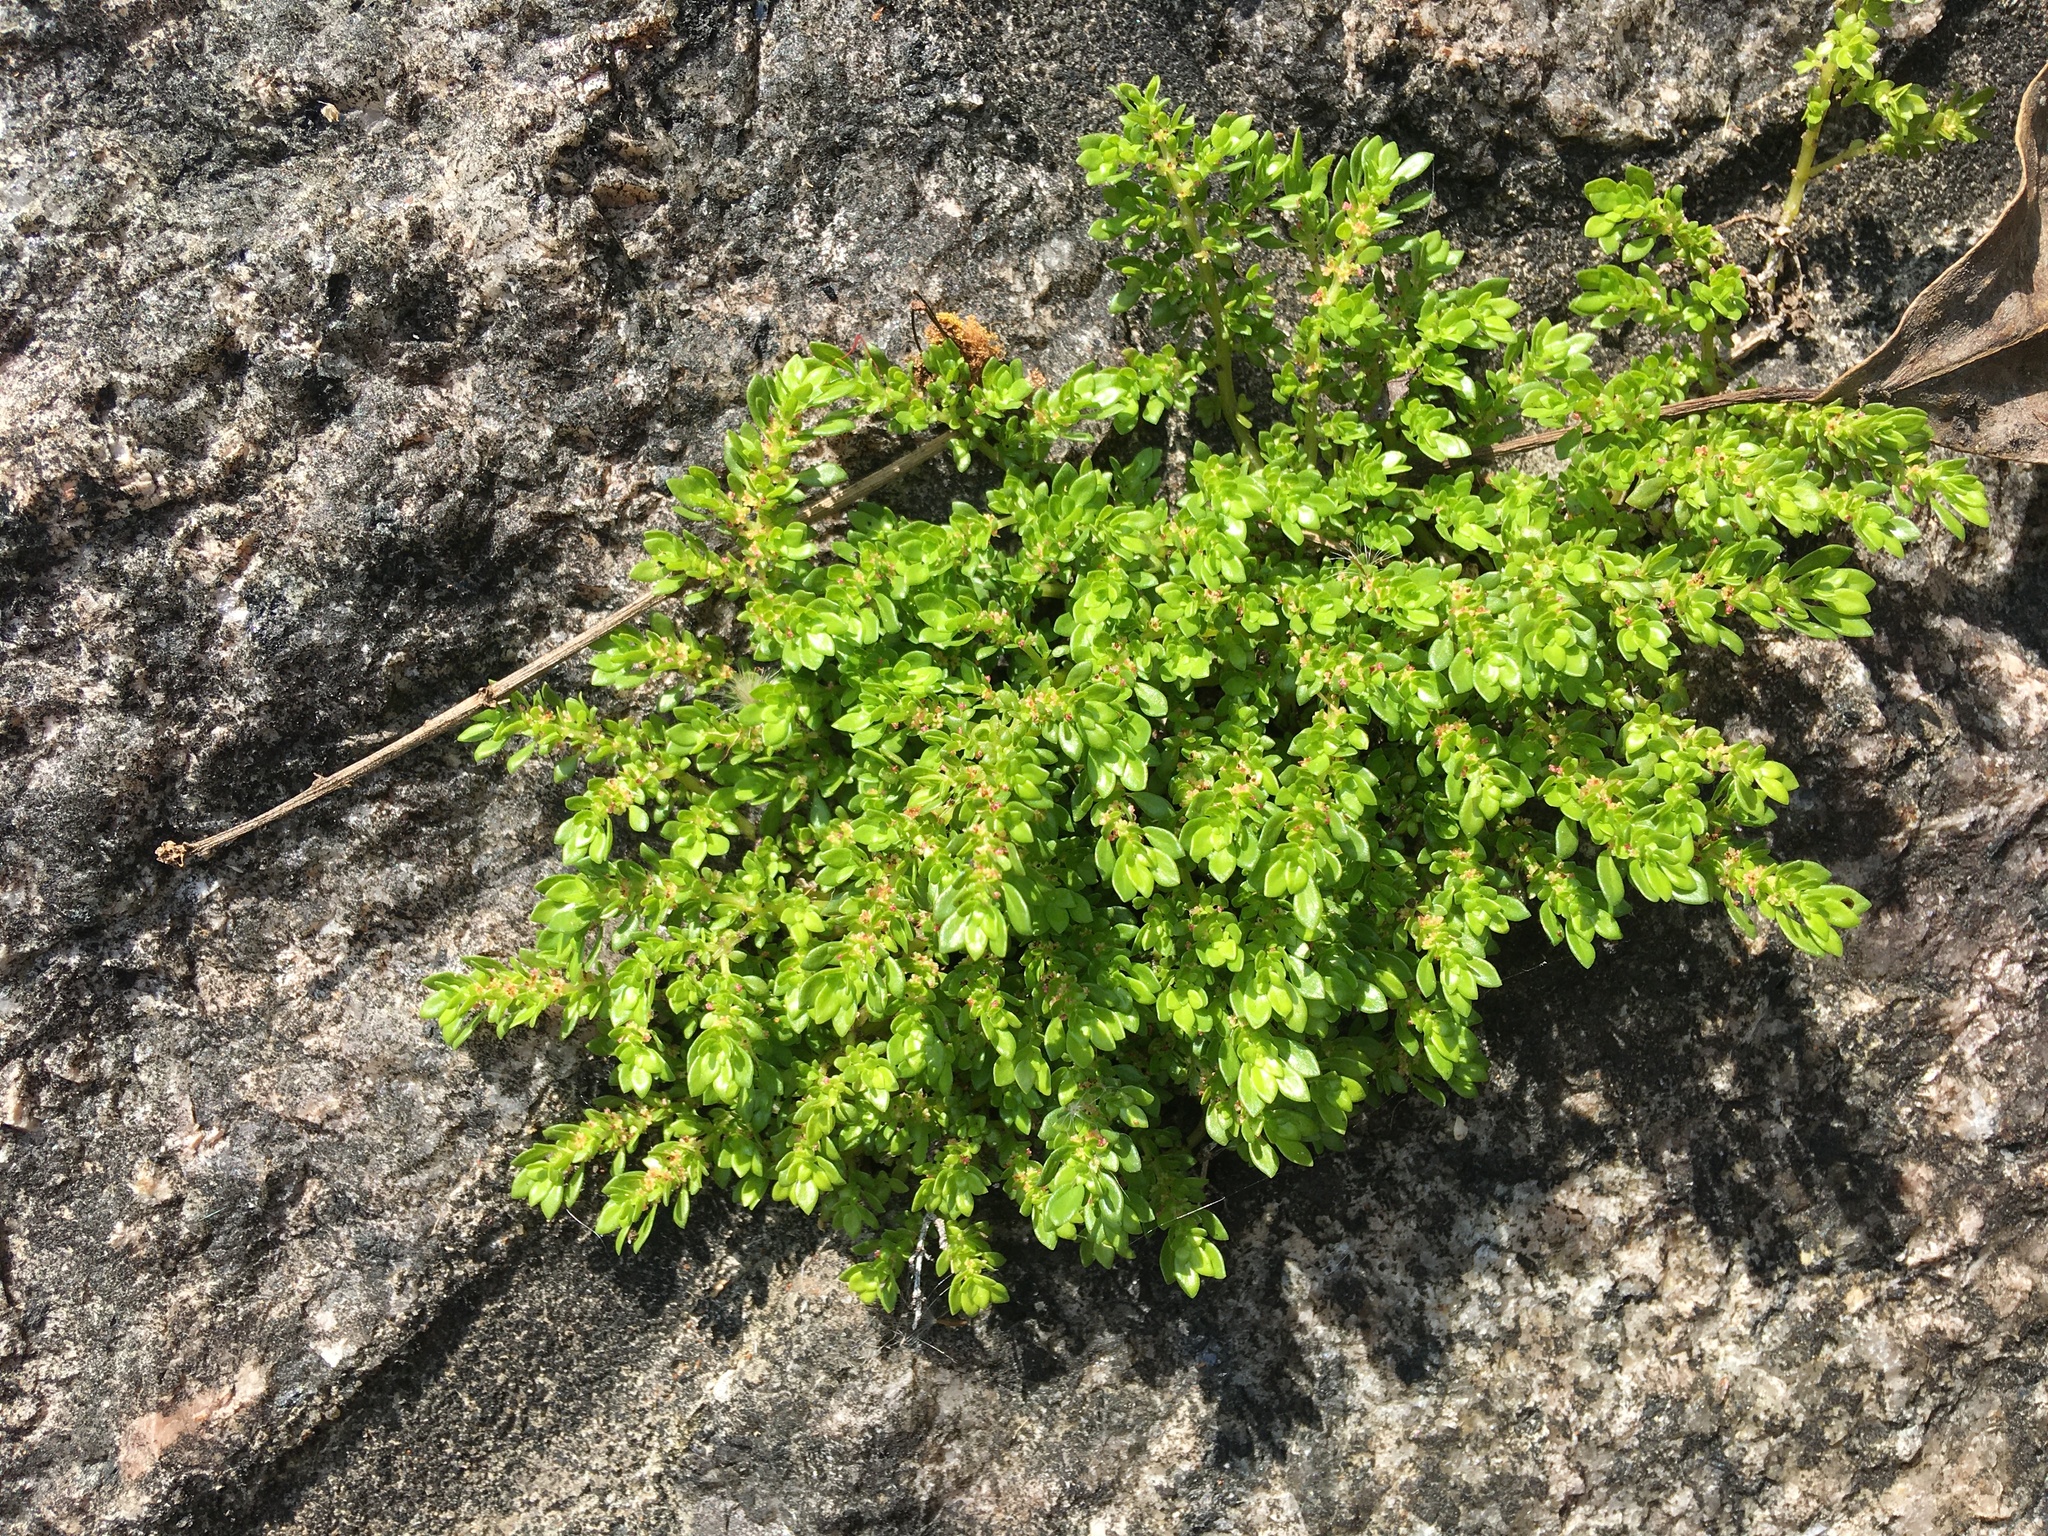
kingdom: Plantae
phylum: Tracheophyta
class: Magnoliopsida
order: Rosales
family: Urticaceae
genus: Pilea
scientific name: Pilea microphylla
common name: Artillery-plant
